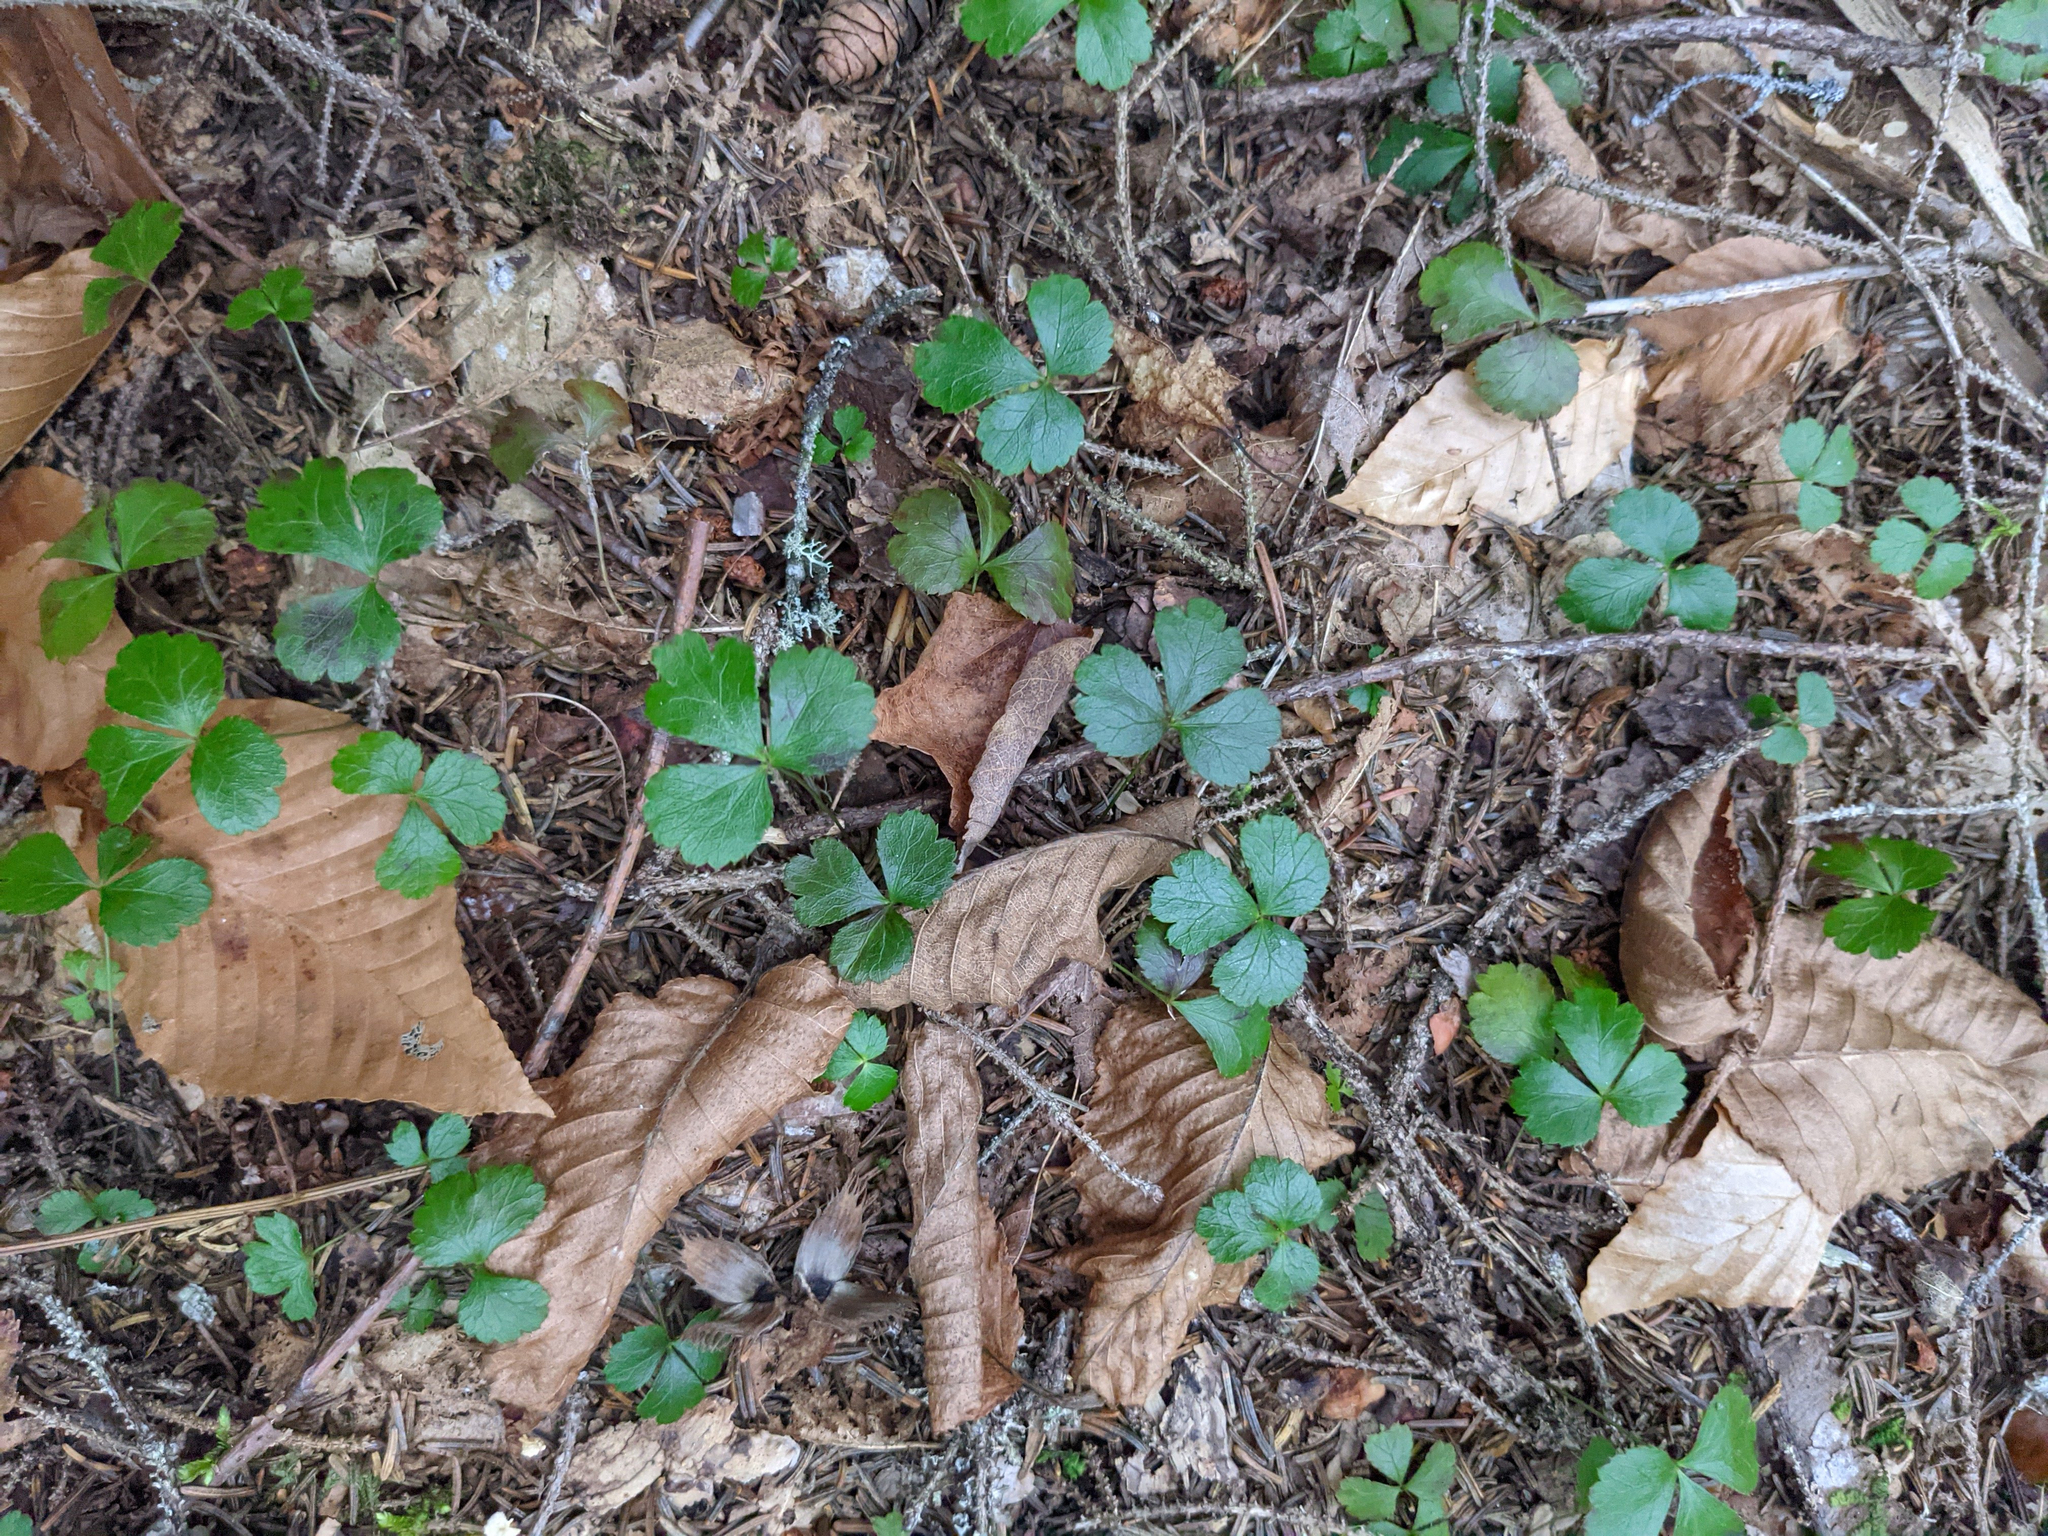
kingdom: Plantae
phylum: Tracheophyta
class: Magnoliopsida
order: Ranunculales
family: Ranunculaceae
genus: Coptis
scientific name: Coptis trifolia
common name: Canker-root
